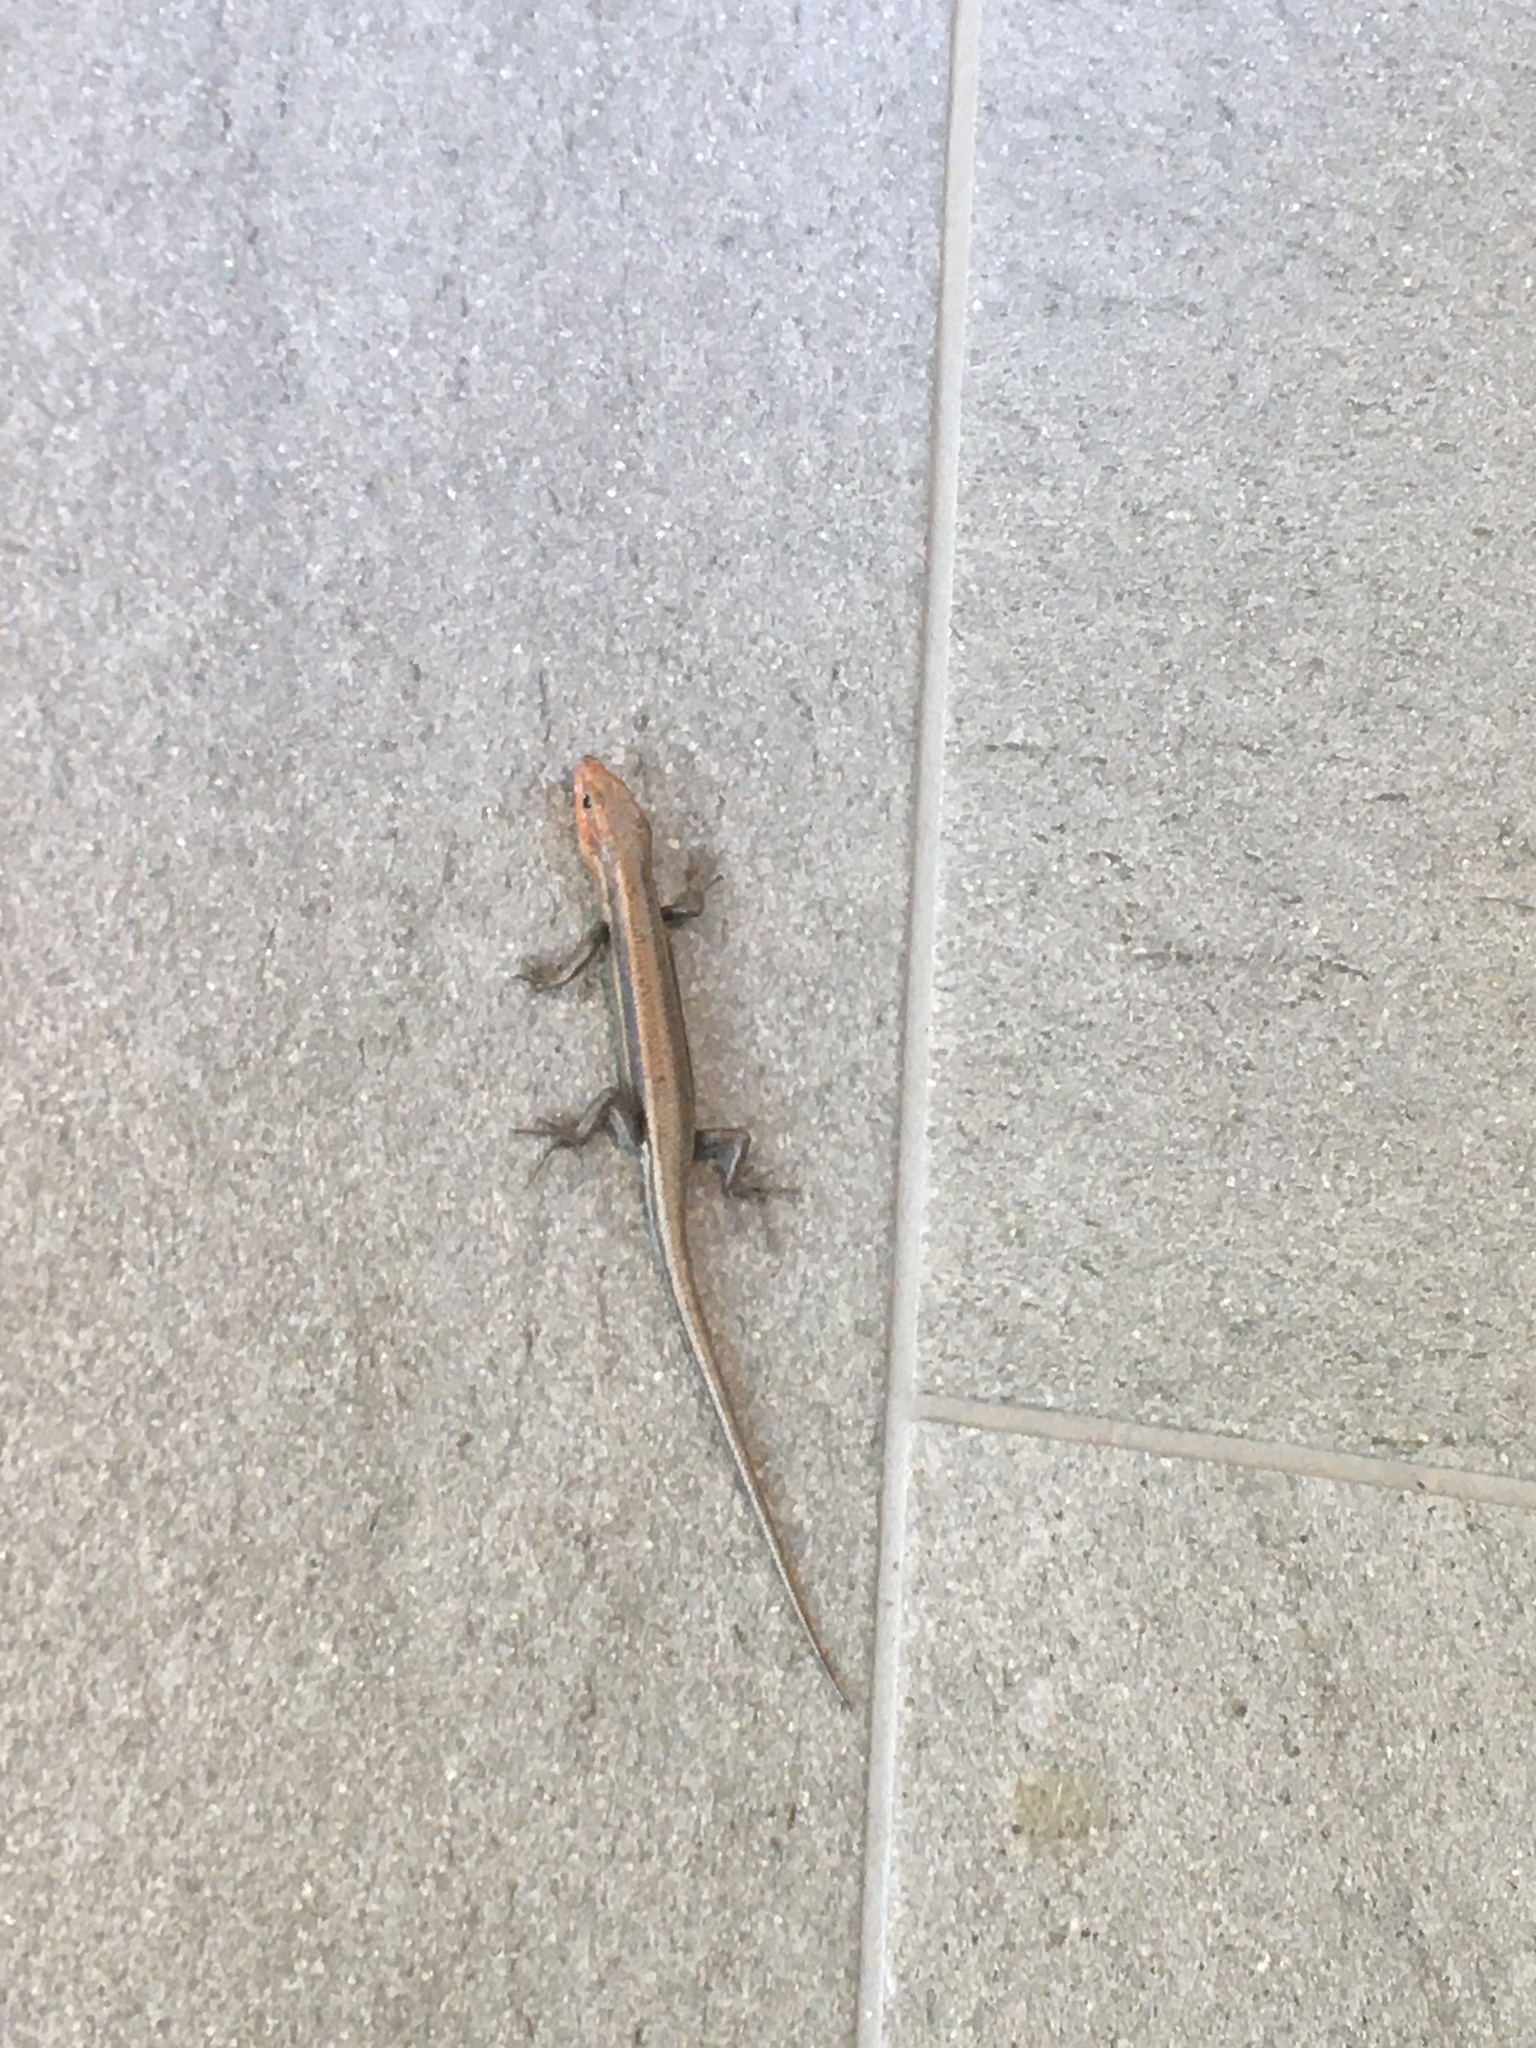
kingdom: Animalia
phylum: Chordata
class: Squamata
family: Scincidae
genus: Plestiodon
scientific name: Plestiodon fasciatus
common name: Five-lined skink
